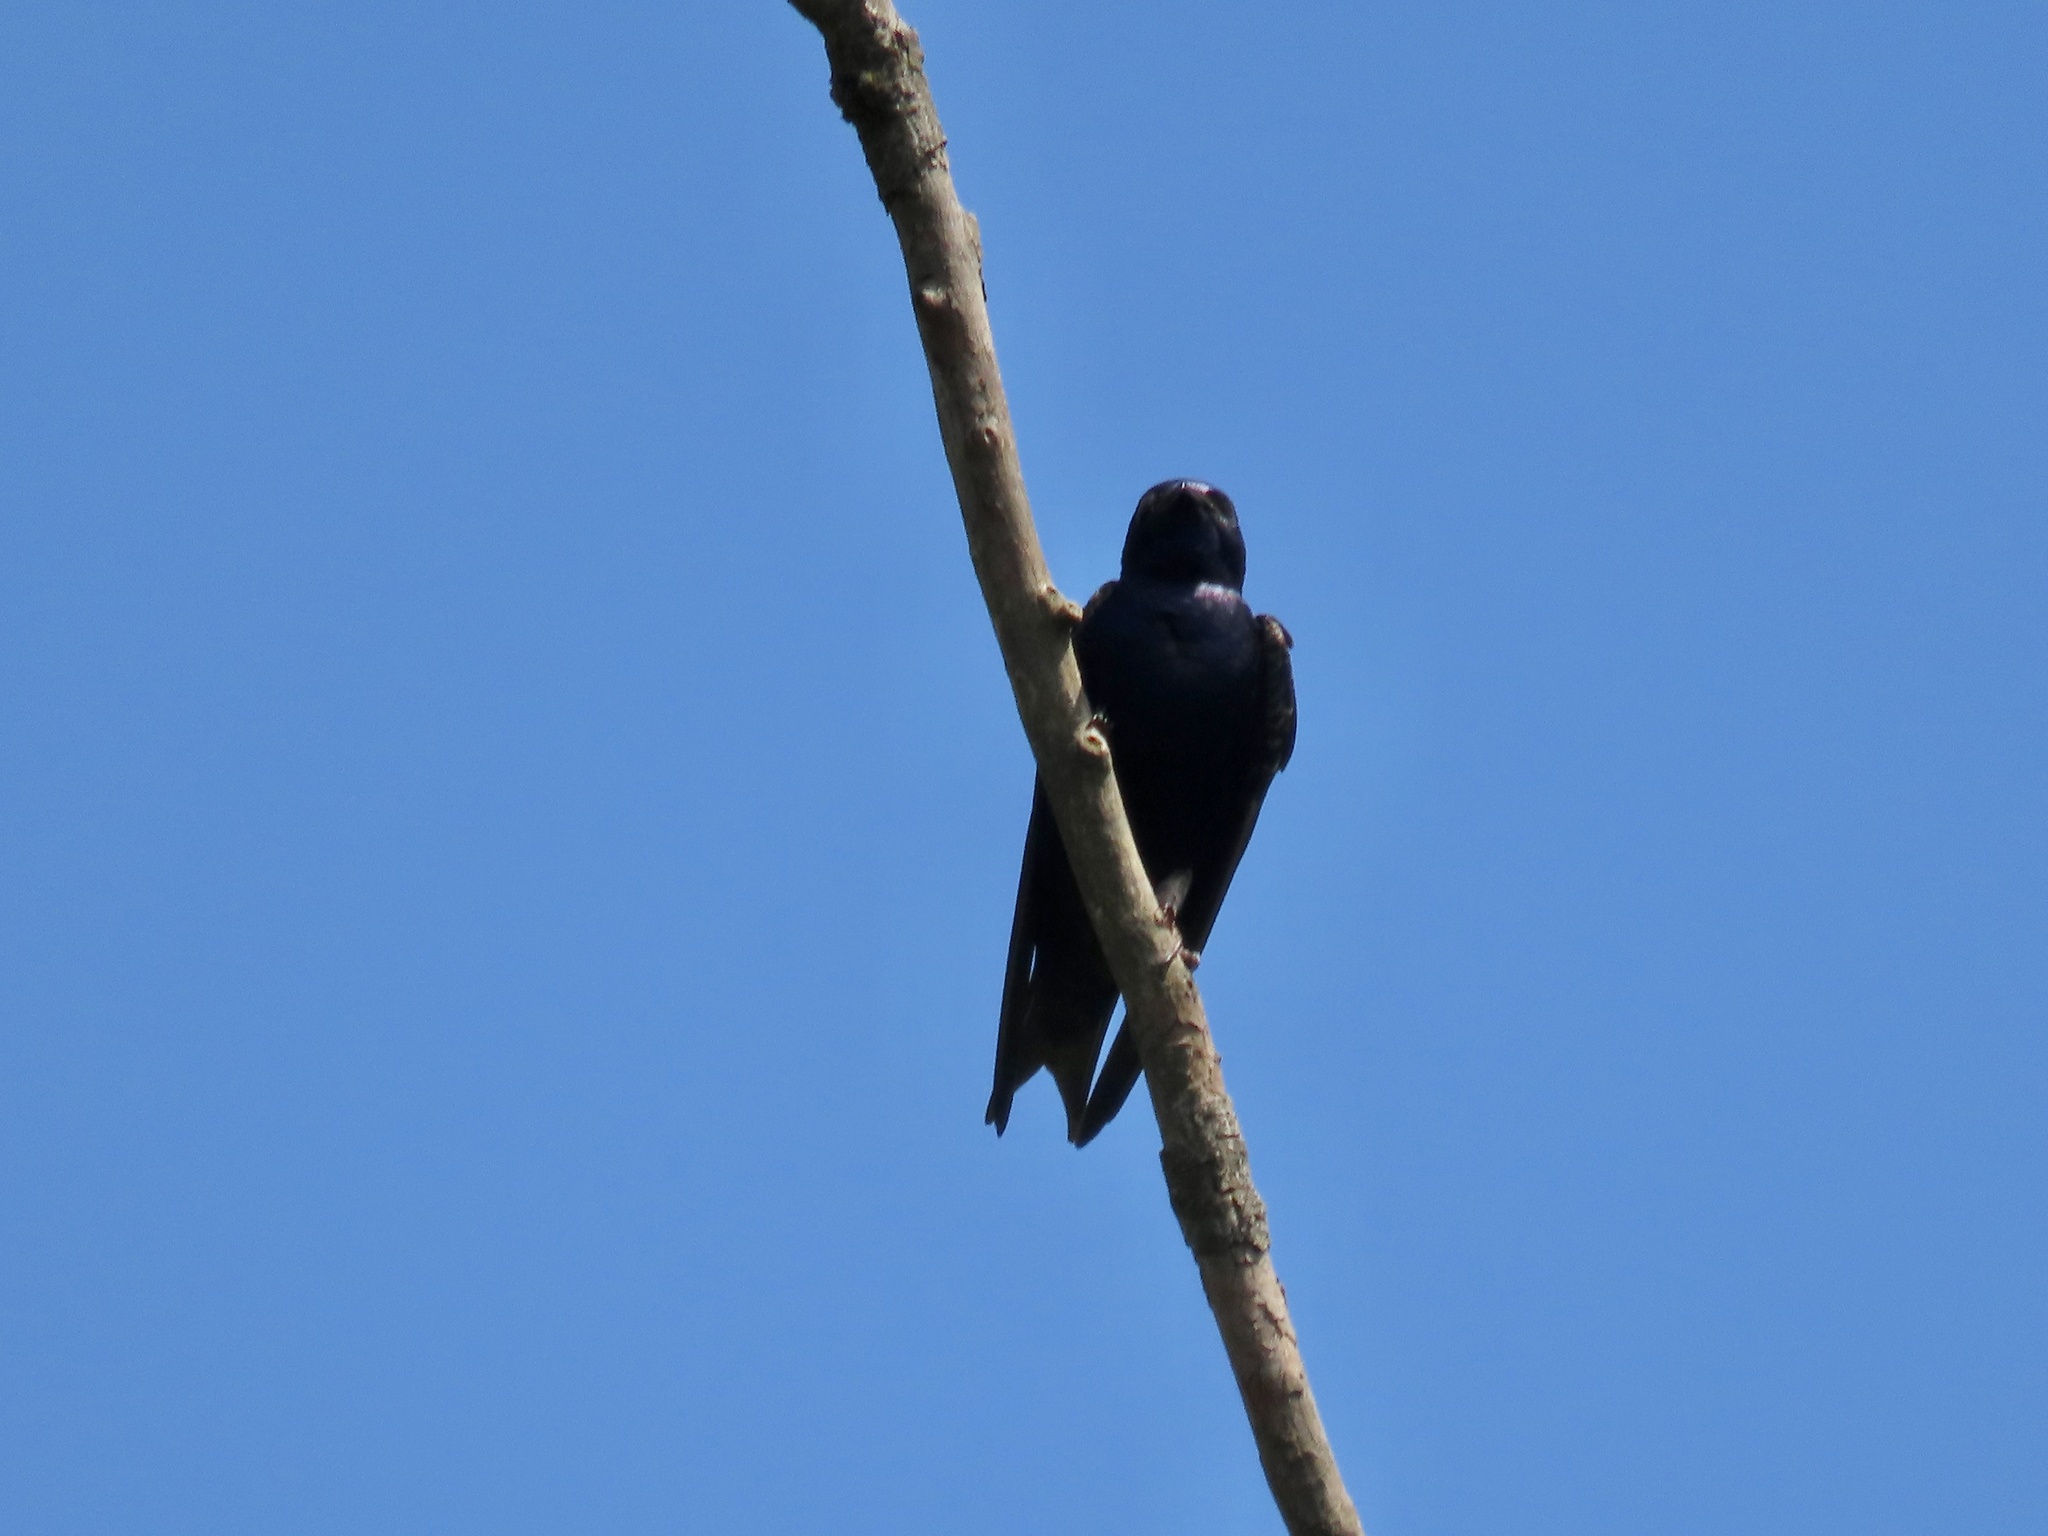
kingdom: Animalia
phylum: Chordata
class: Aves
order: Passeriformes
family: Hirundinidae
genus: Progne
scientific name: Progne subis
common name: Purple martin
